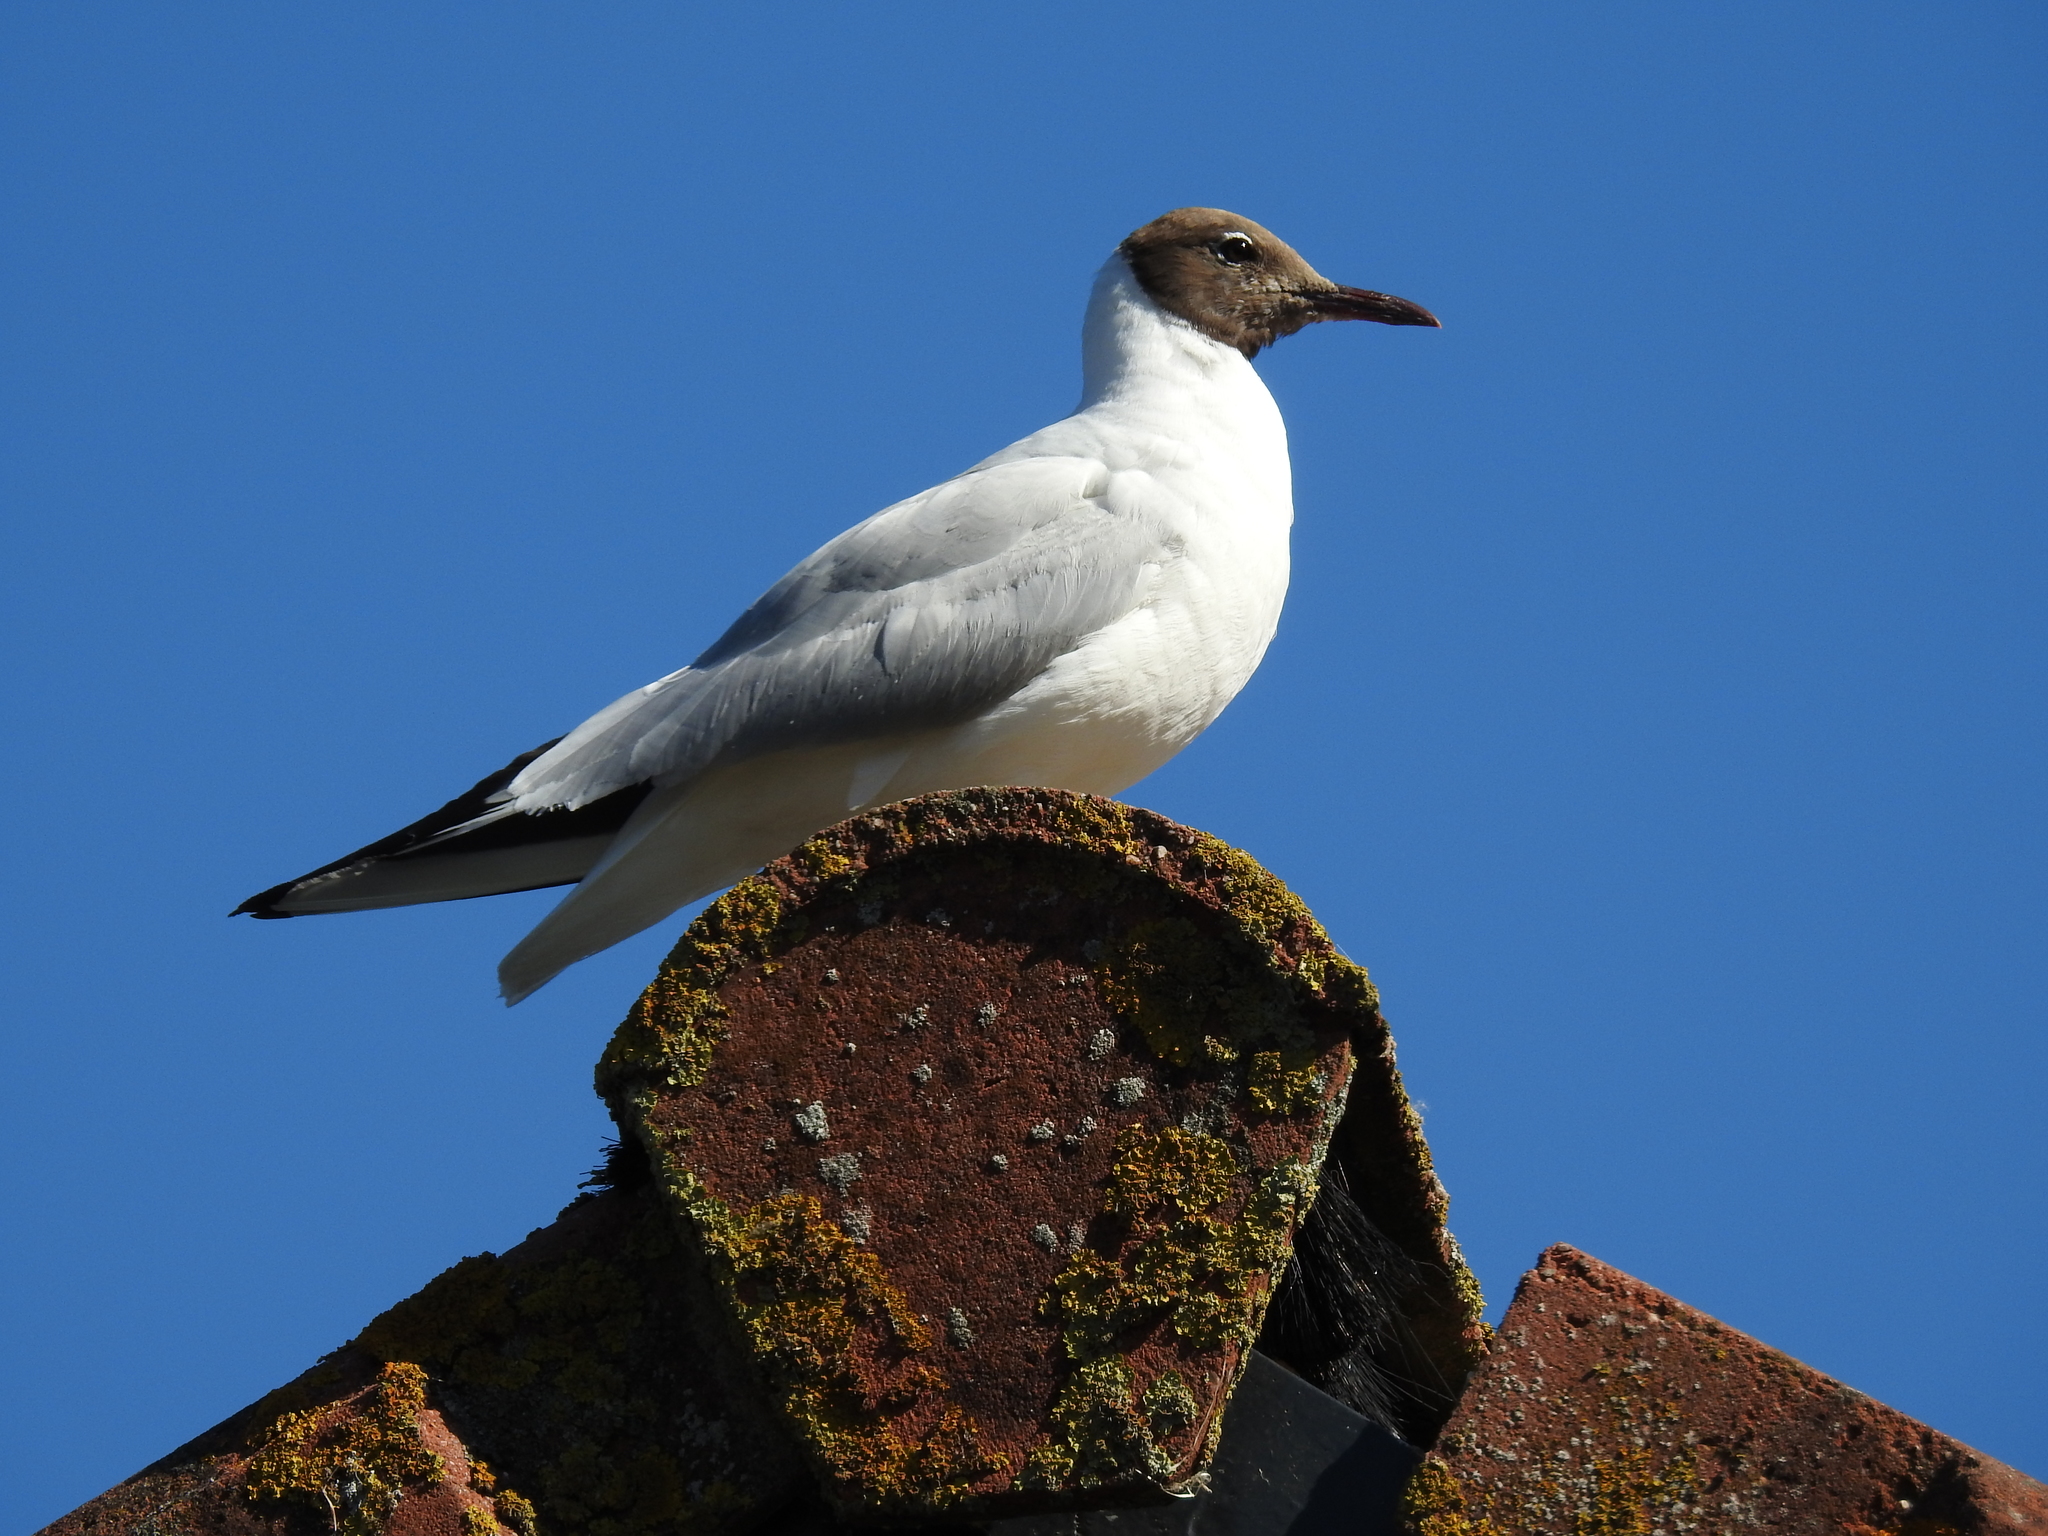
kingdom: Animalia
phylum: Chordata
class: Aves
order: Charadriiformes
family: Laridae
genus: Chroicocephalus
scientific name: Chroicocephalus ridibundus
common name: Black-headed gull
